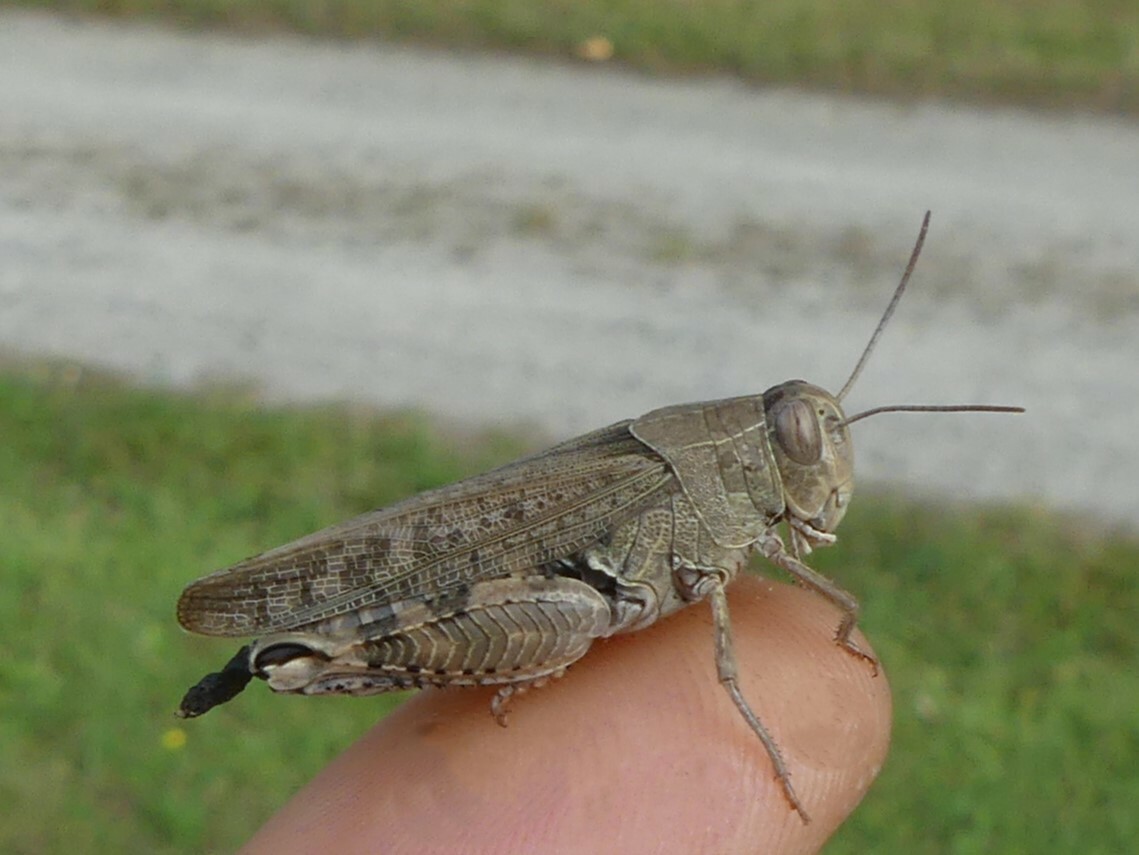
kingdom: Animalia
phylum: Arthropoda
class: Insecta
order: Orthoptera
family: Acrididae
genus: Calliptamus
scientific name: Calliptamus italicus
